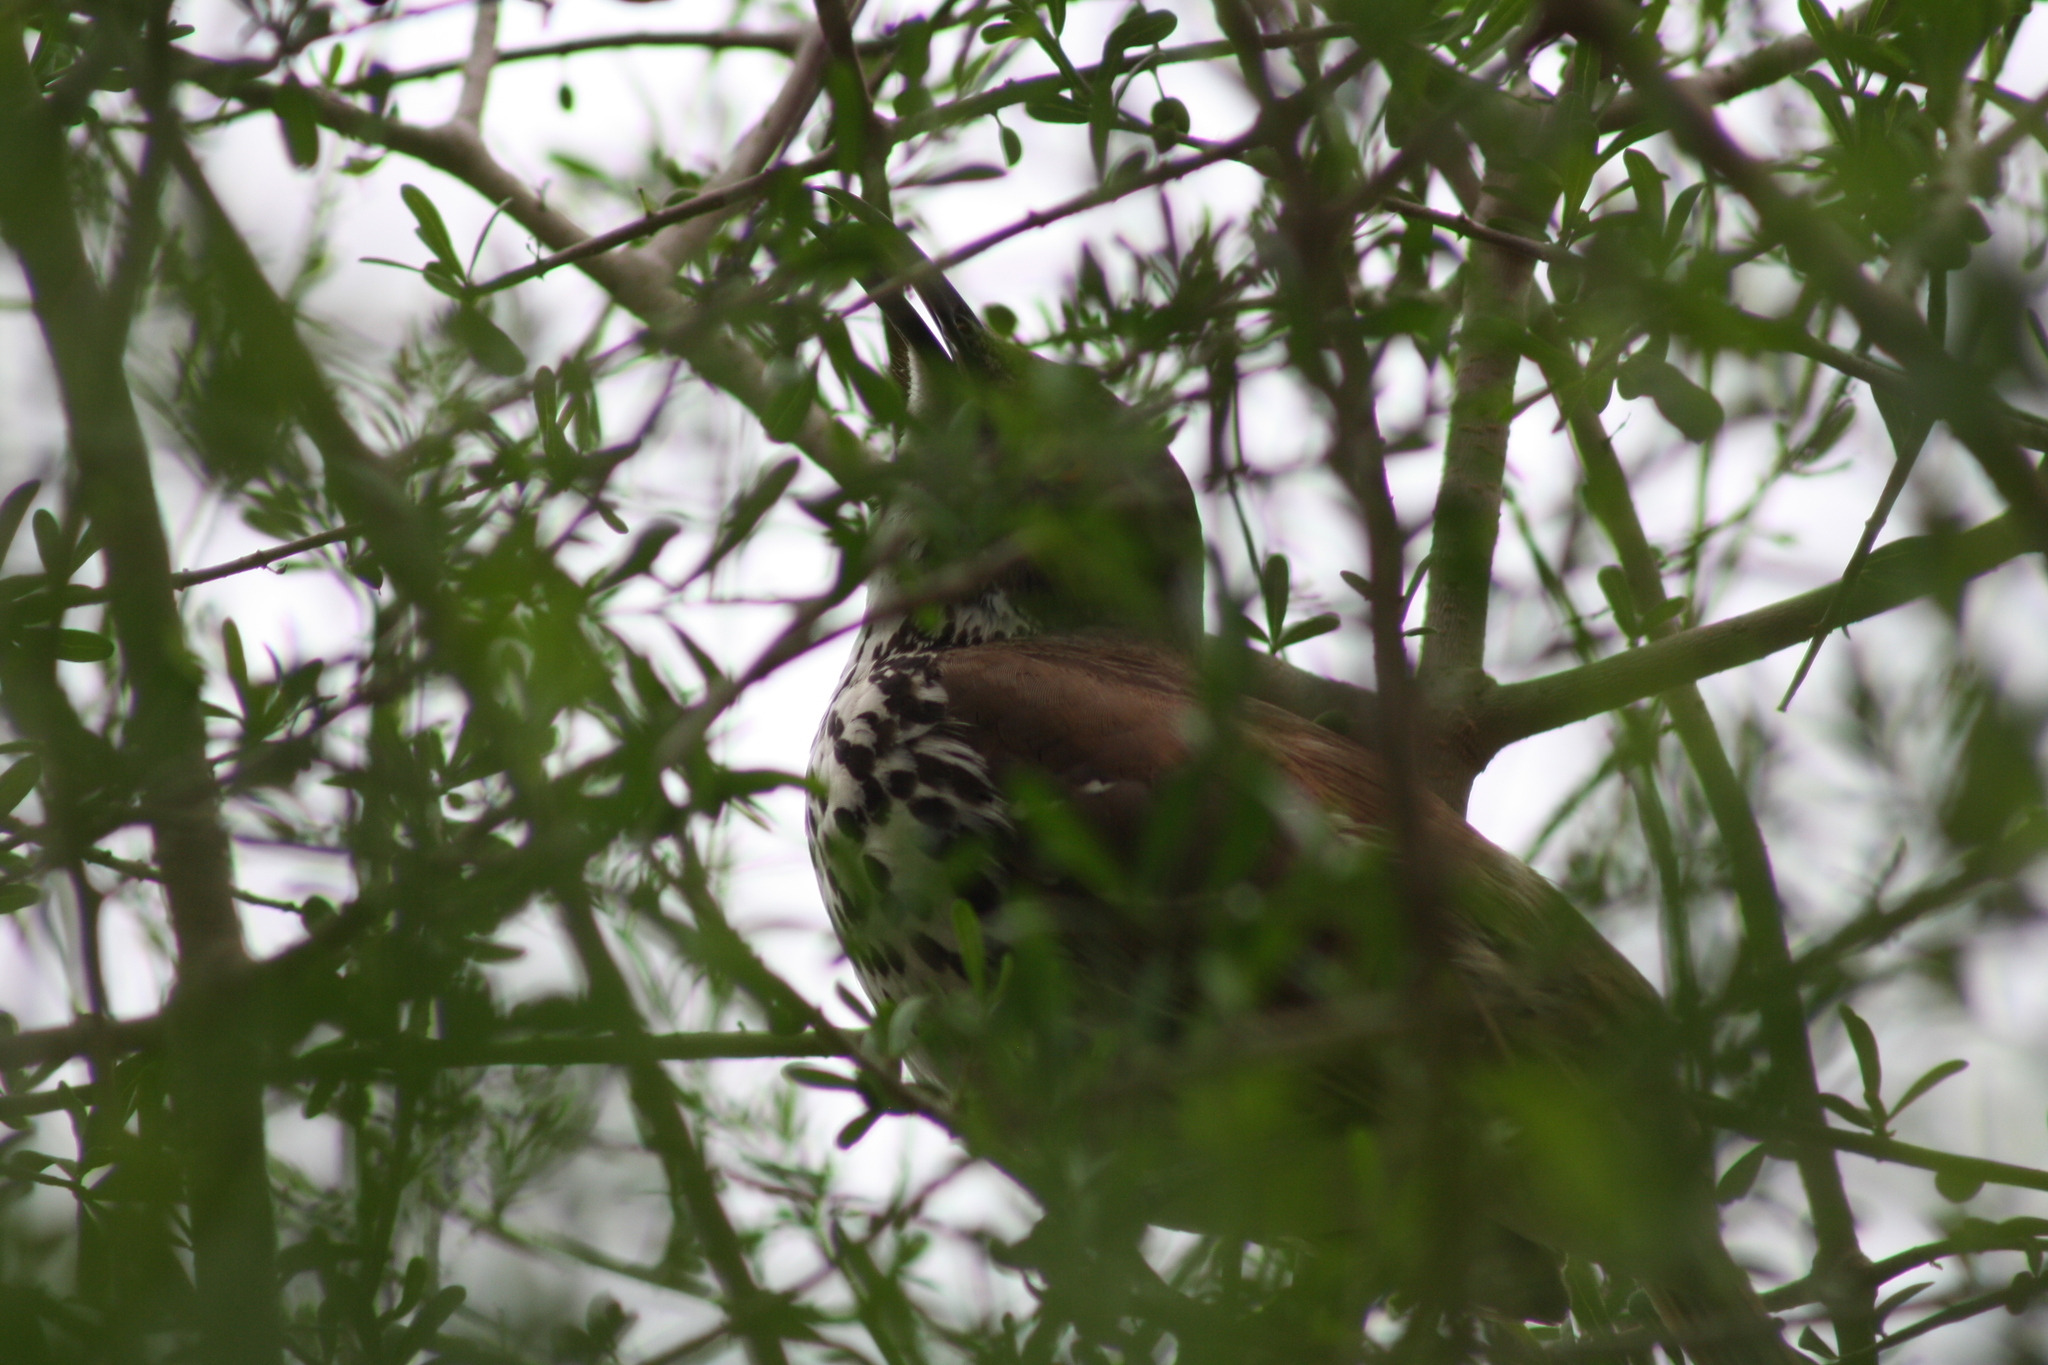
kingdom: Animalia
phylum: Chordata
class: Aves
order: Passeriformes
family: Mimidae
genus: Toxostoma
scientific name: Toxostoma longirostre
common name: Long-billed thrasher
